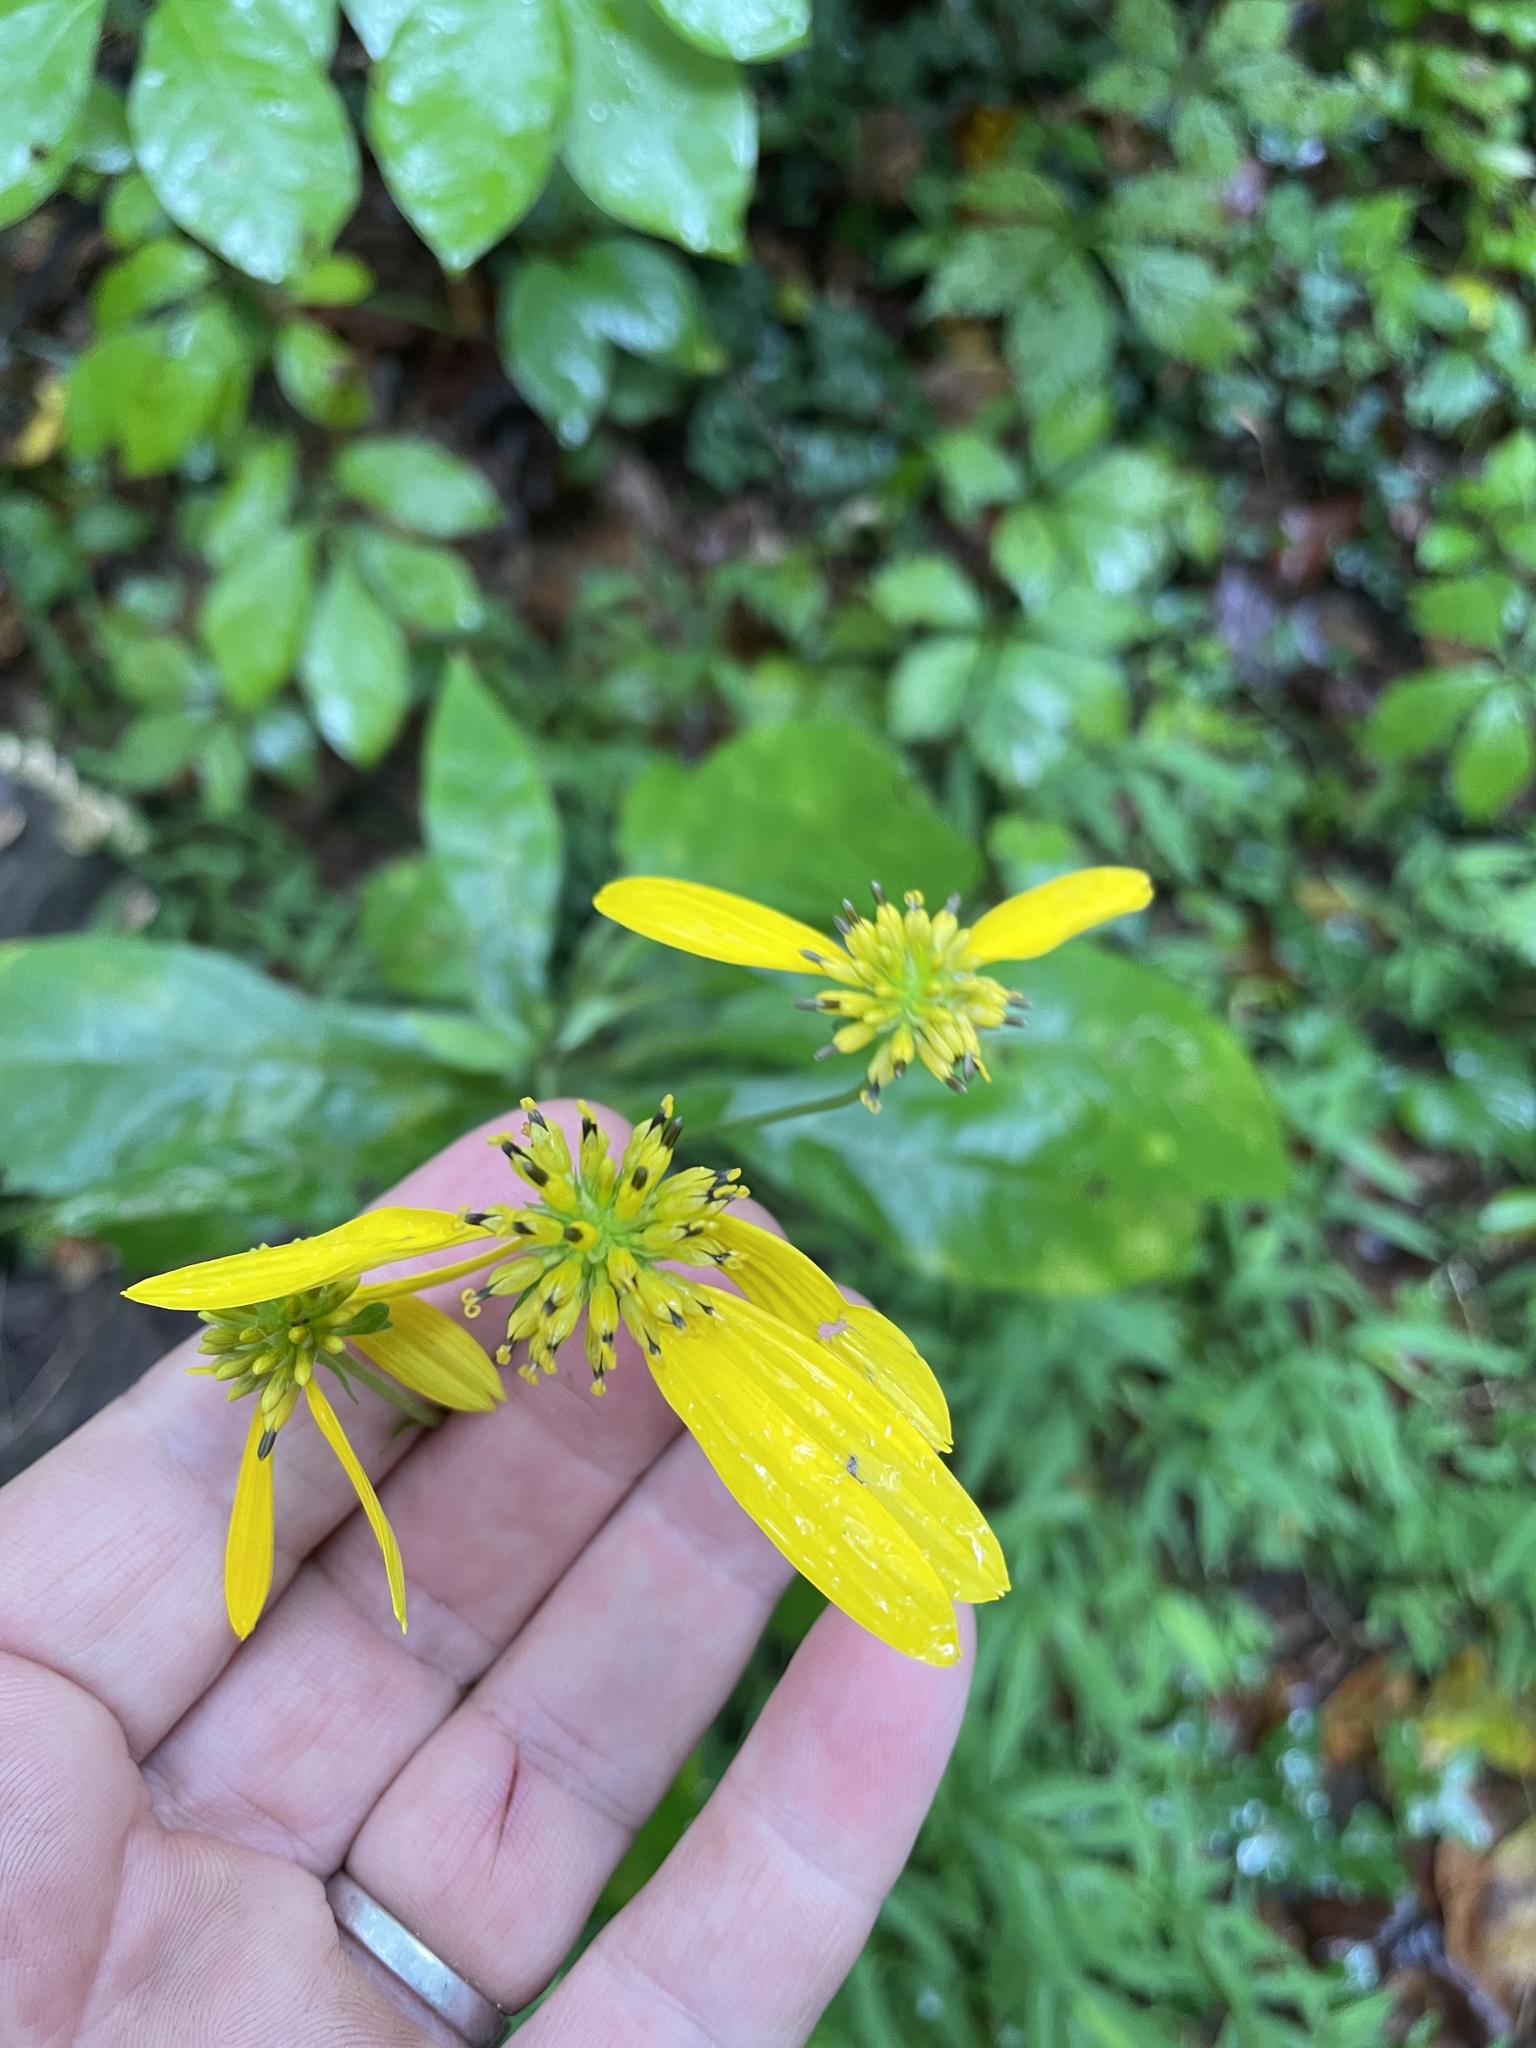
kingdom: Plantae
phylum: Tracheophyta
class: Magnoliopsida
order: Asterales
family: Asteraceae
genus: Verbesina
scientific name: Verbesina alternifolia
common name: Wingstem
